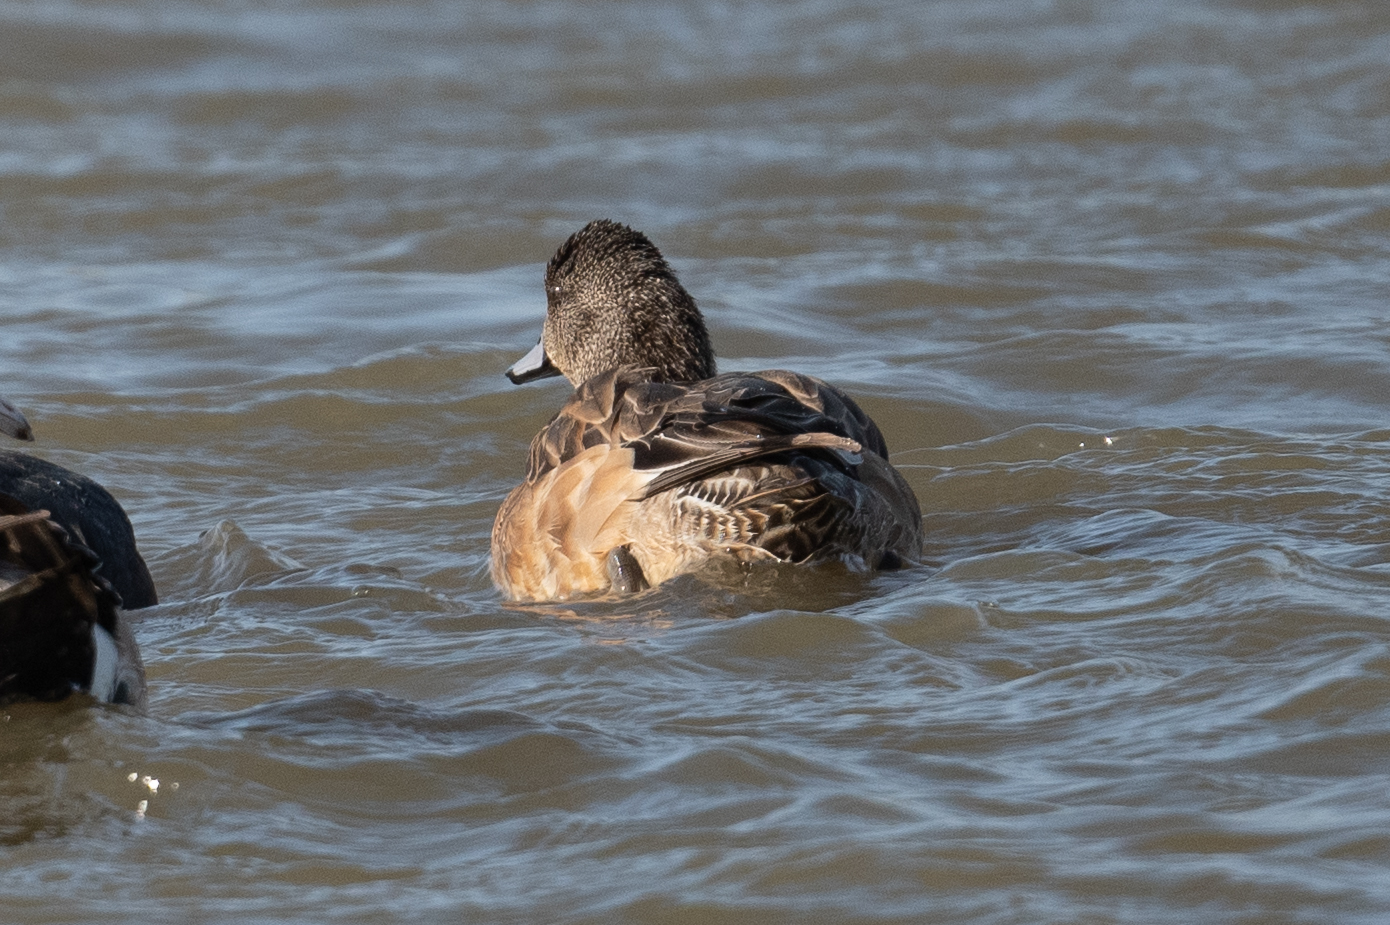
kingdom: Animalia
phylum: Chordata
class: Aves
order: Anseriformes
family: Anatidae
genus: Mareca
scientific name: Mareca americana
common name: American wigeon
